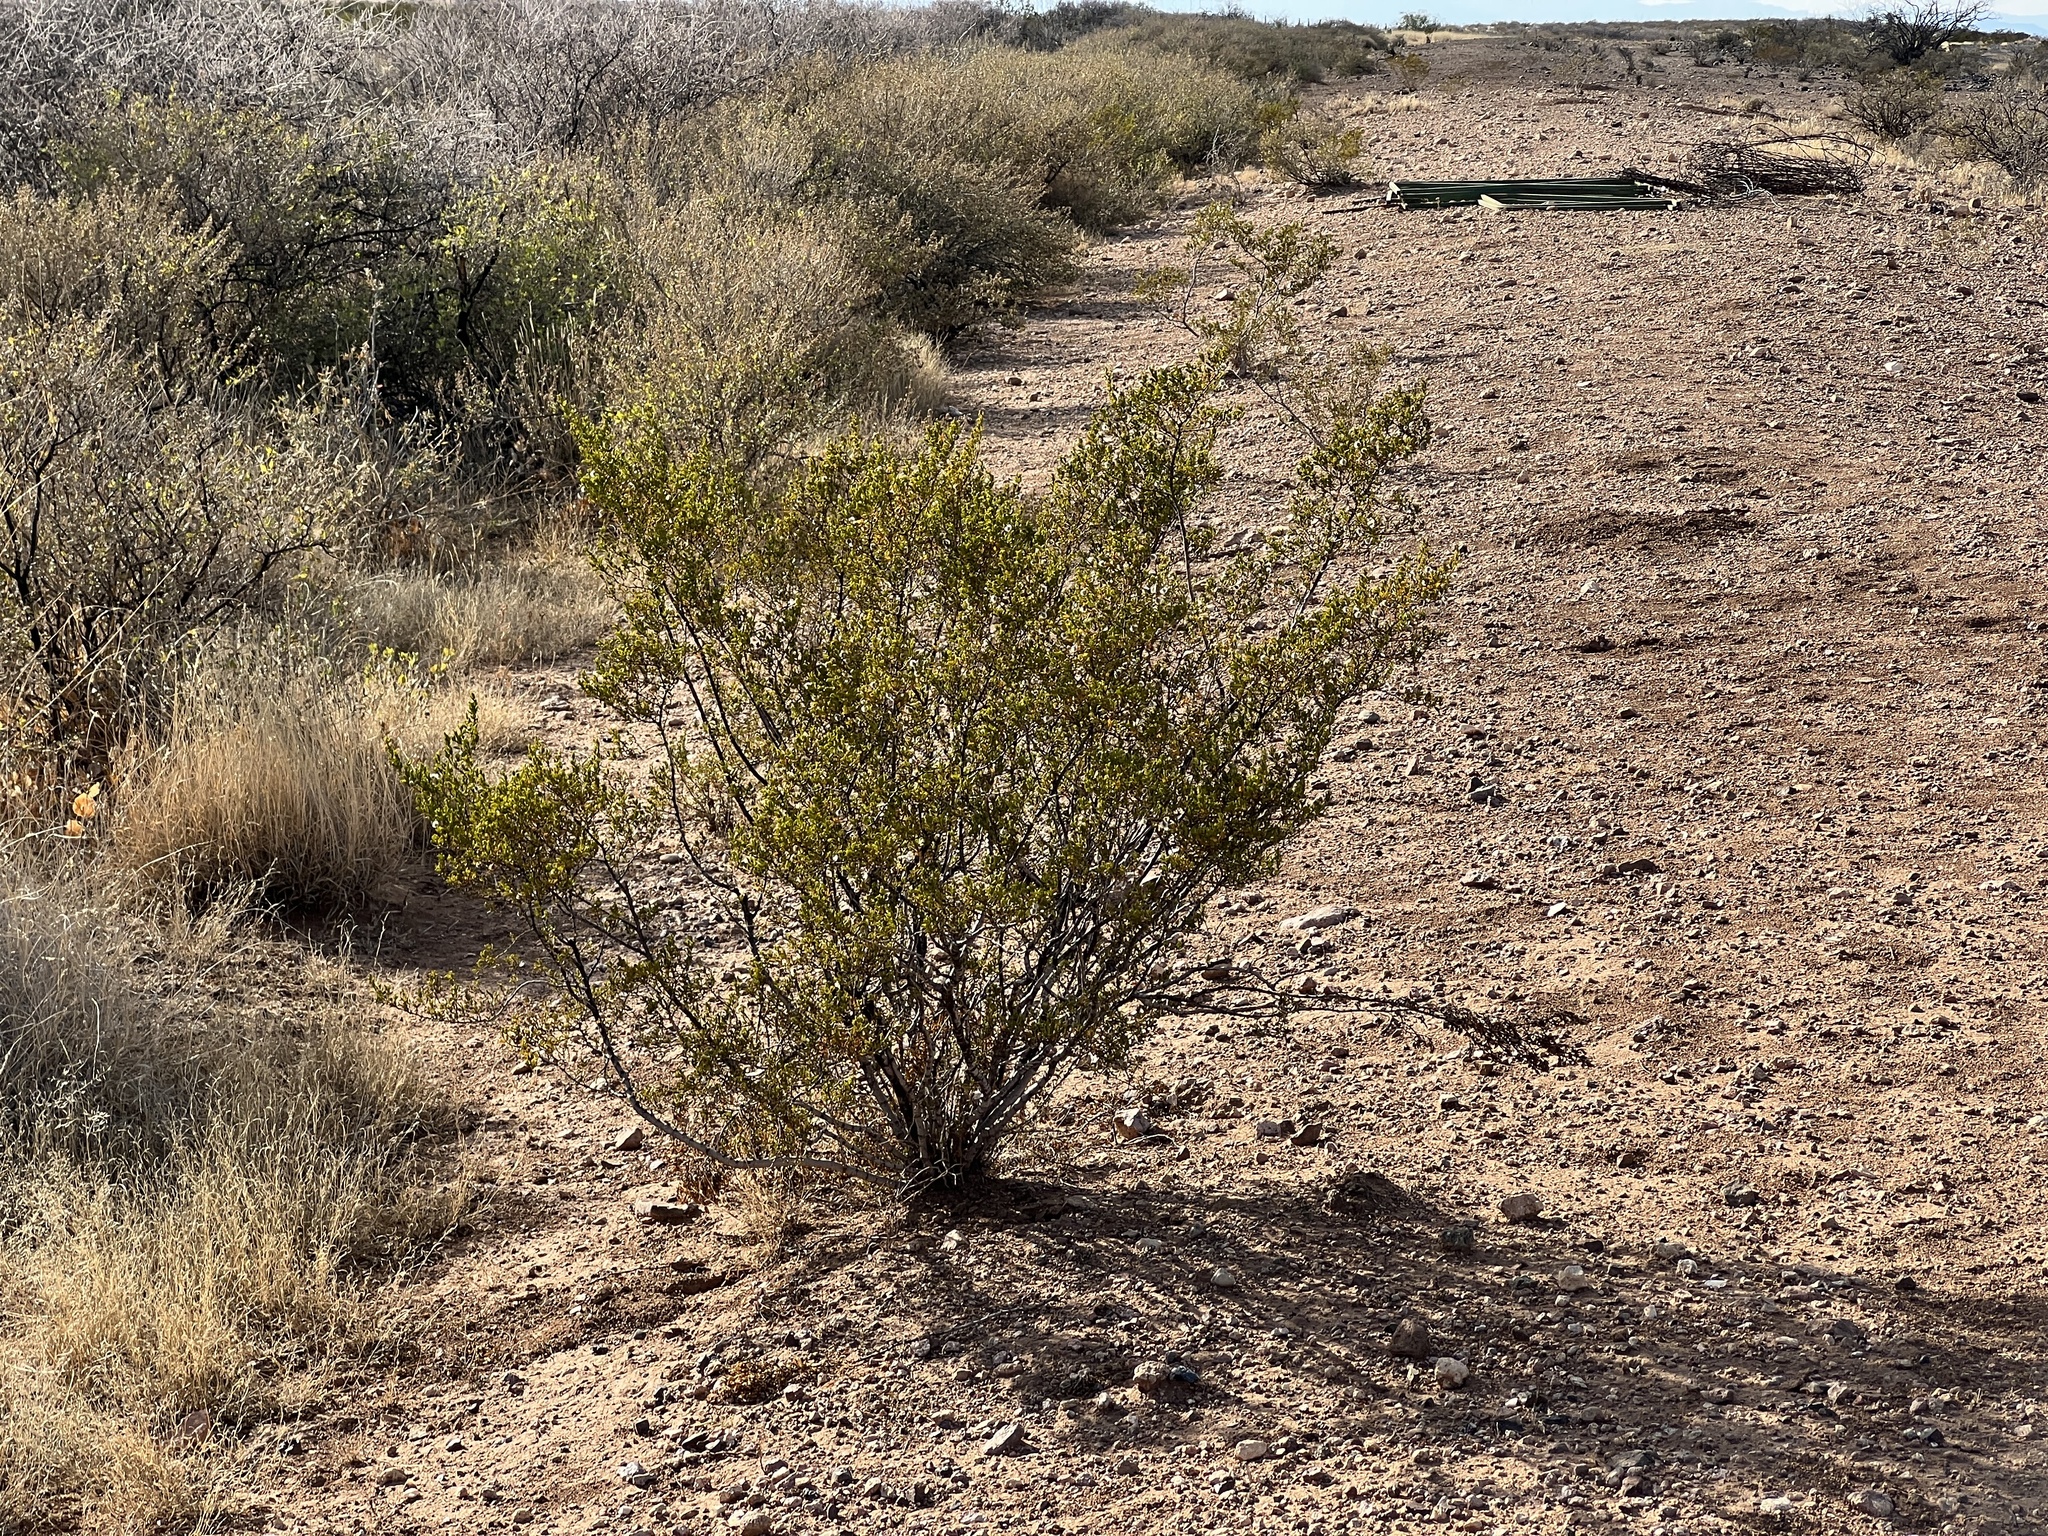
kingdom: Plantae
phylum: Tracheophyta
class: Magnoliopsida
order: Zygophyllales
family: Zygophyllaceae
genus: Larrea
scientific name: Larrea tridentata
